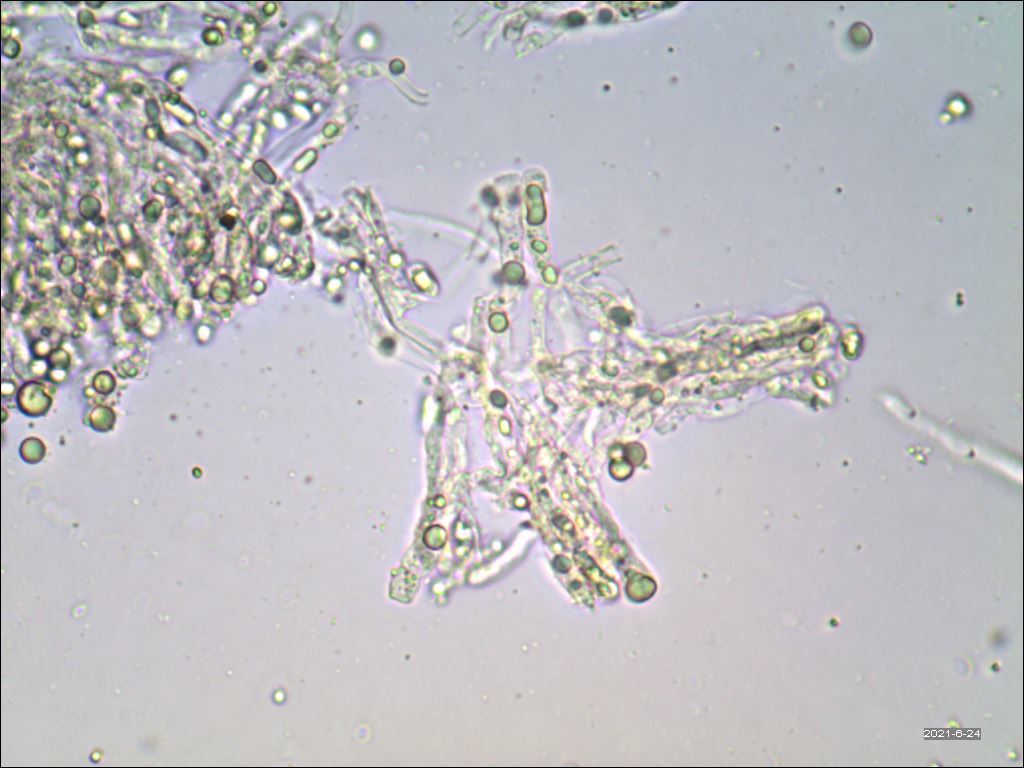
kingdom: Fungi
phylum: Basidiomycota
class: Agaricomycetes
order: Cantharellales
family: Hydnaceae
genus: Cantharellus
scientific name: Cantharellus corallinus
